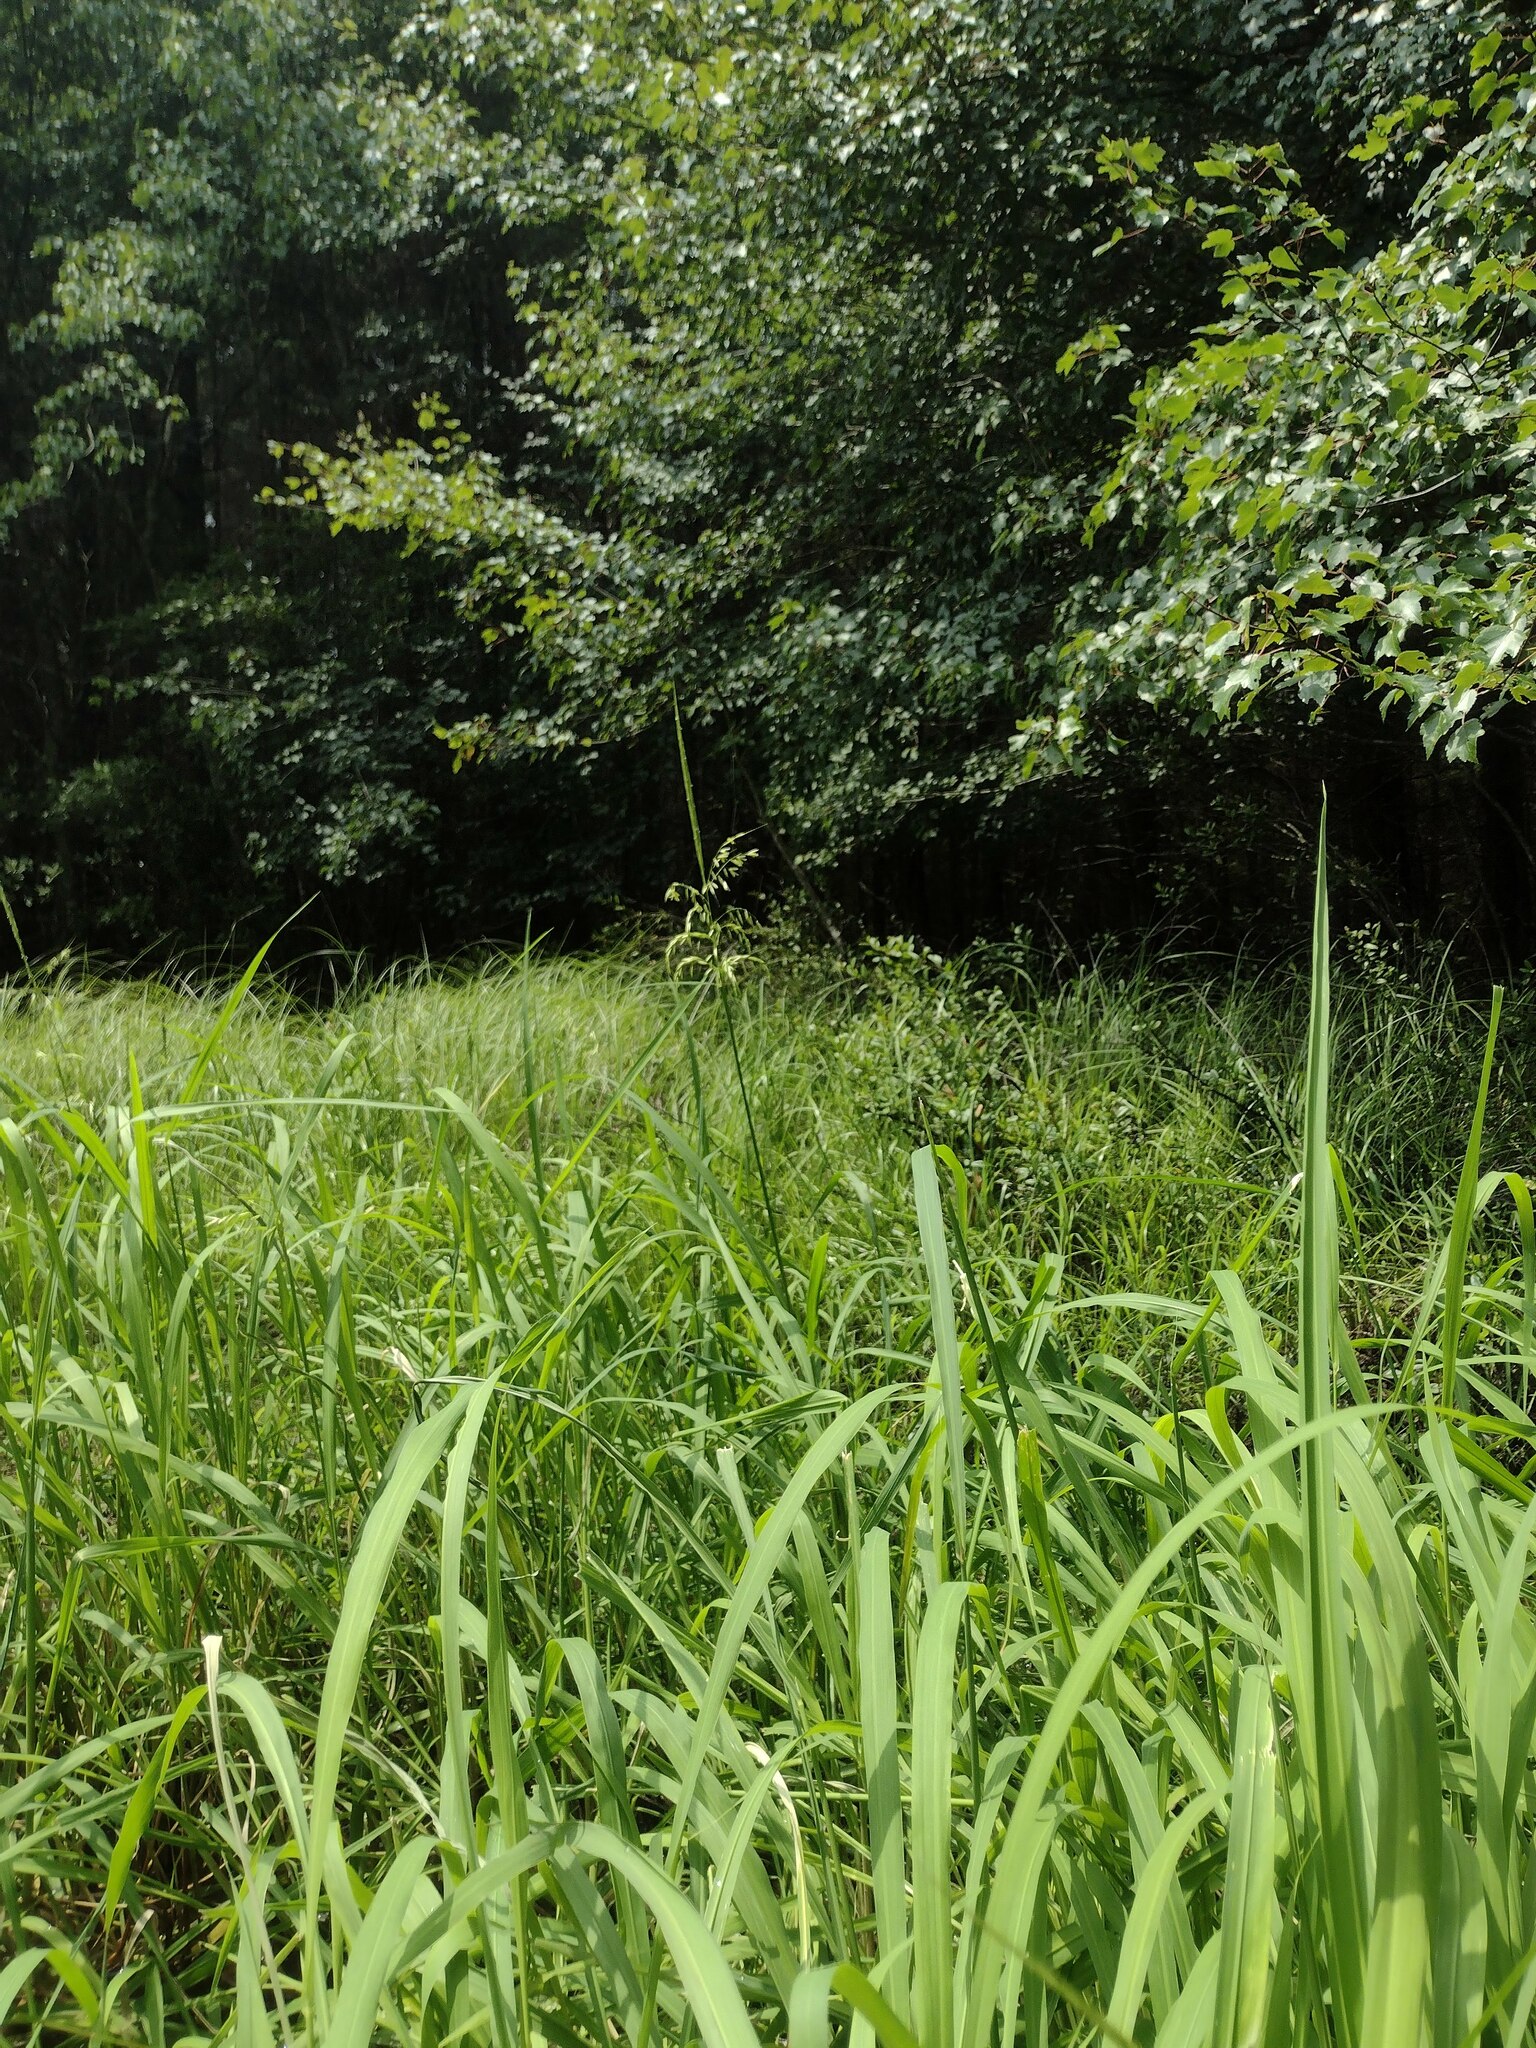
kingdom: Plantae
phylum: Tracheophyta
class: Liliopsida
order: Poales
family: Poaceae
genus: Zizania
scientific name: Zizania aquatica
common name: Annual wildrice
